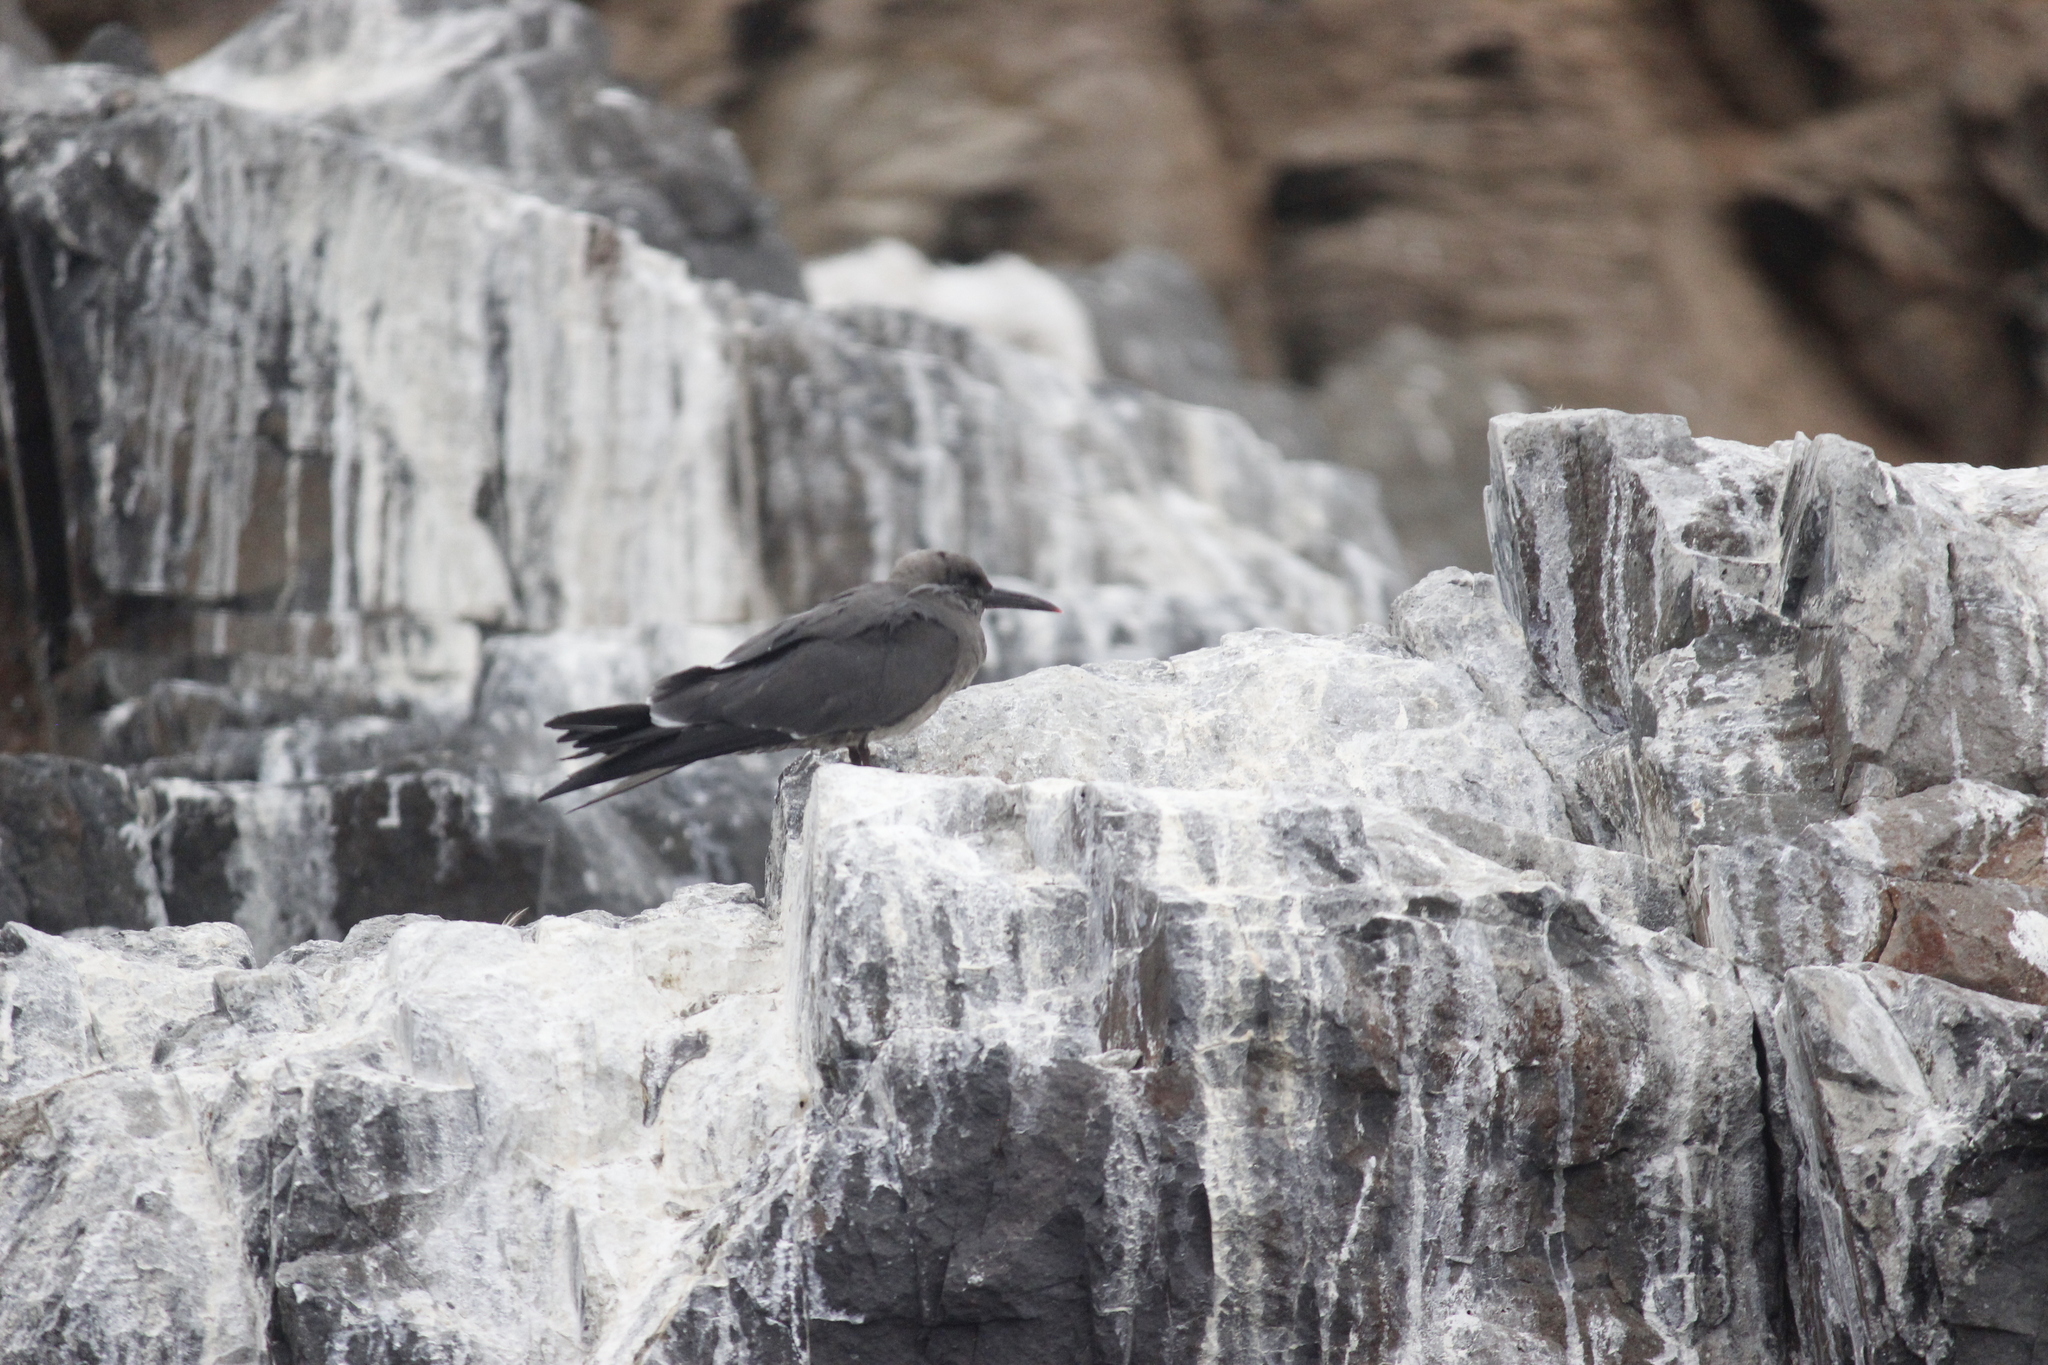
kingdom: Animalia
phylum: Chordata
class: Aves
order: Charadriiformes
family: Laridae
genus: Larosterna
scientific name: Larosterna inca
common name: Inca tern
